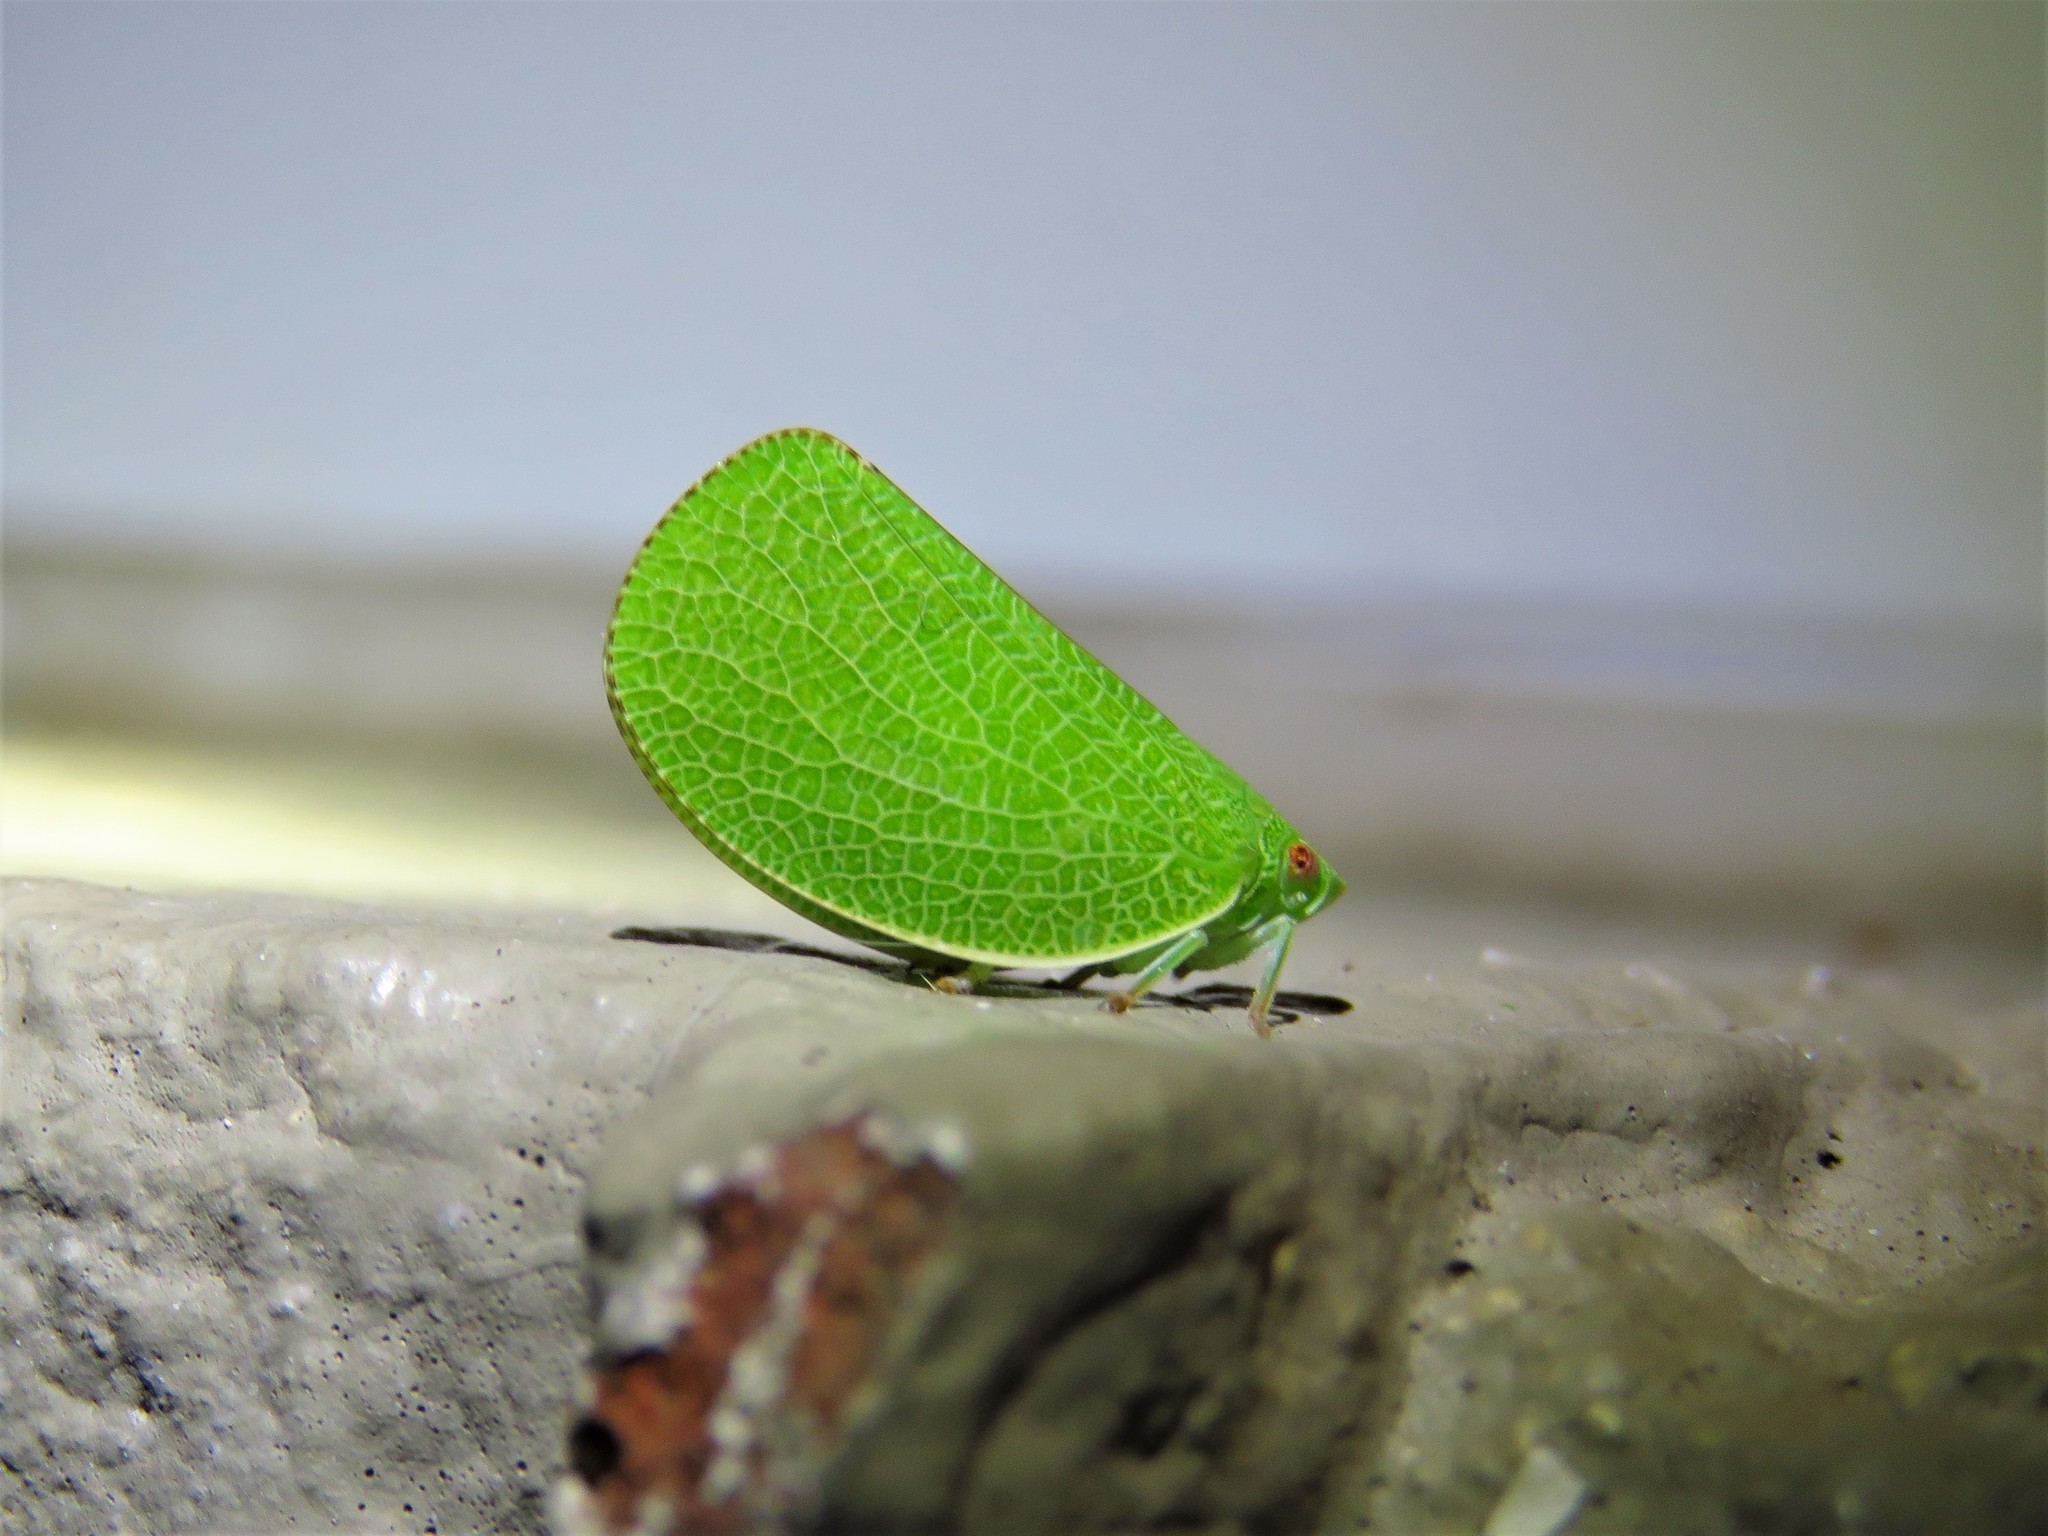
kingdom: Animalia
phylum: Arthropoda
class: Insecta
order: Hemiptera
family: Acanaloniidae
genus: Acanalonia
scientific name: Acanalonia conica
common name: Green cone-headed planthopper
